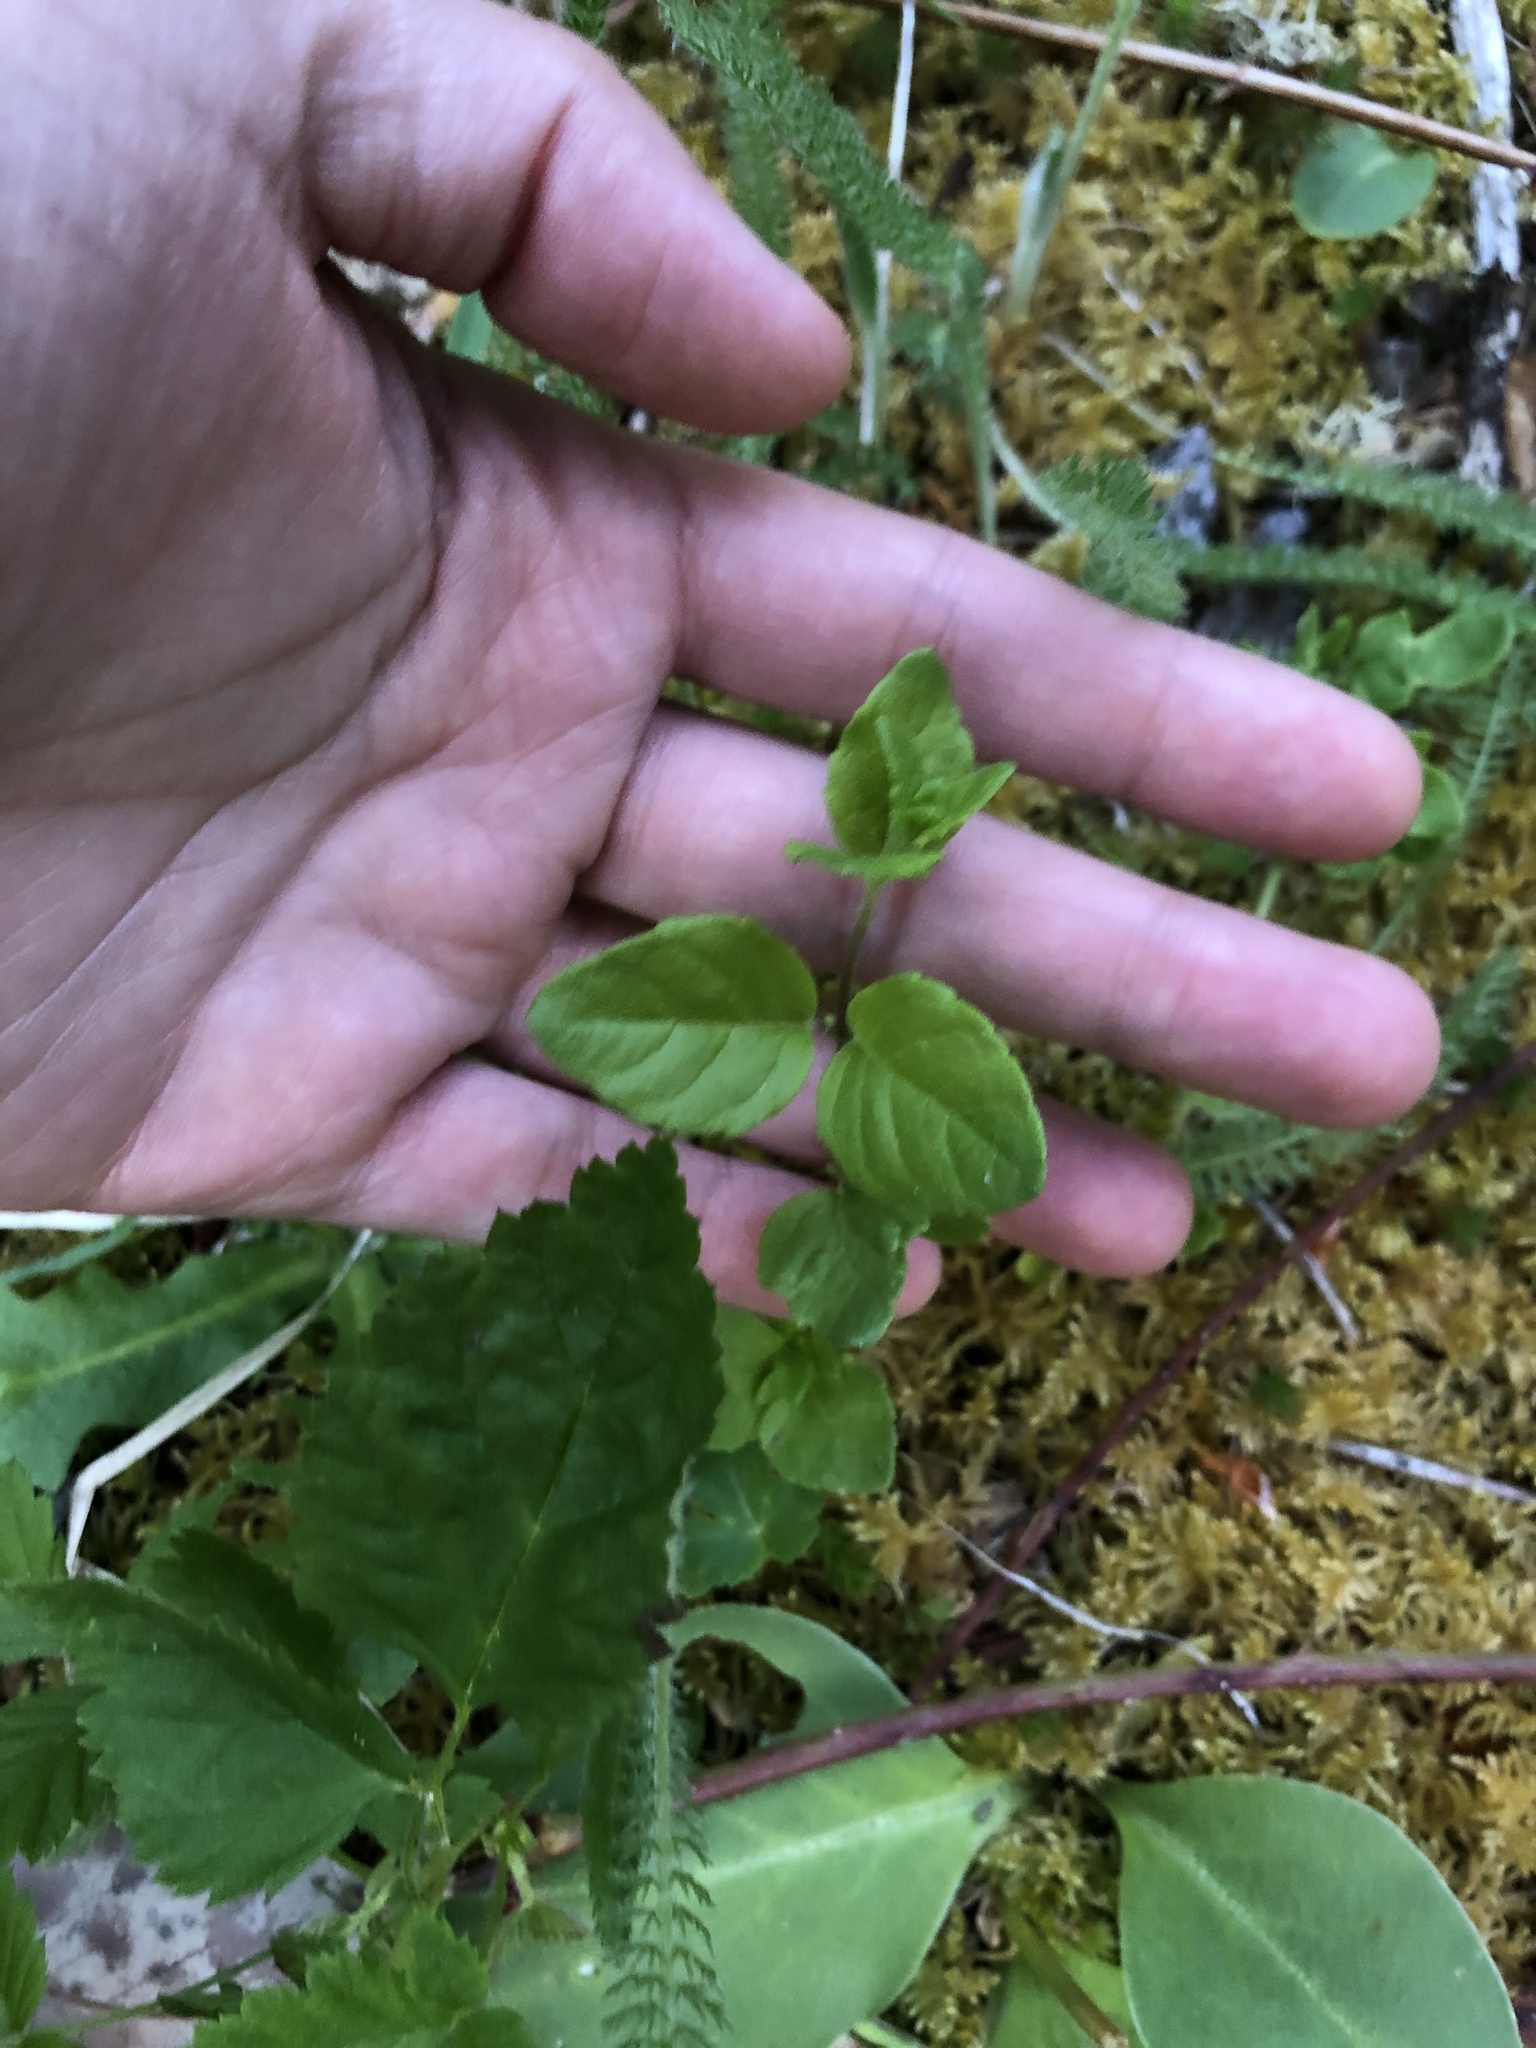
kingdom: Plantae
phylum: Tracheophyta
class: Magnoliopsida
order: Lamiales
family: Lamiaceae
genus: Micromeria
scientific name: Micromeria douglasii
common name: Yerba buena
